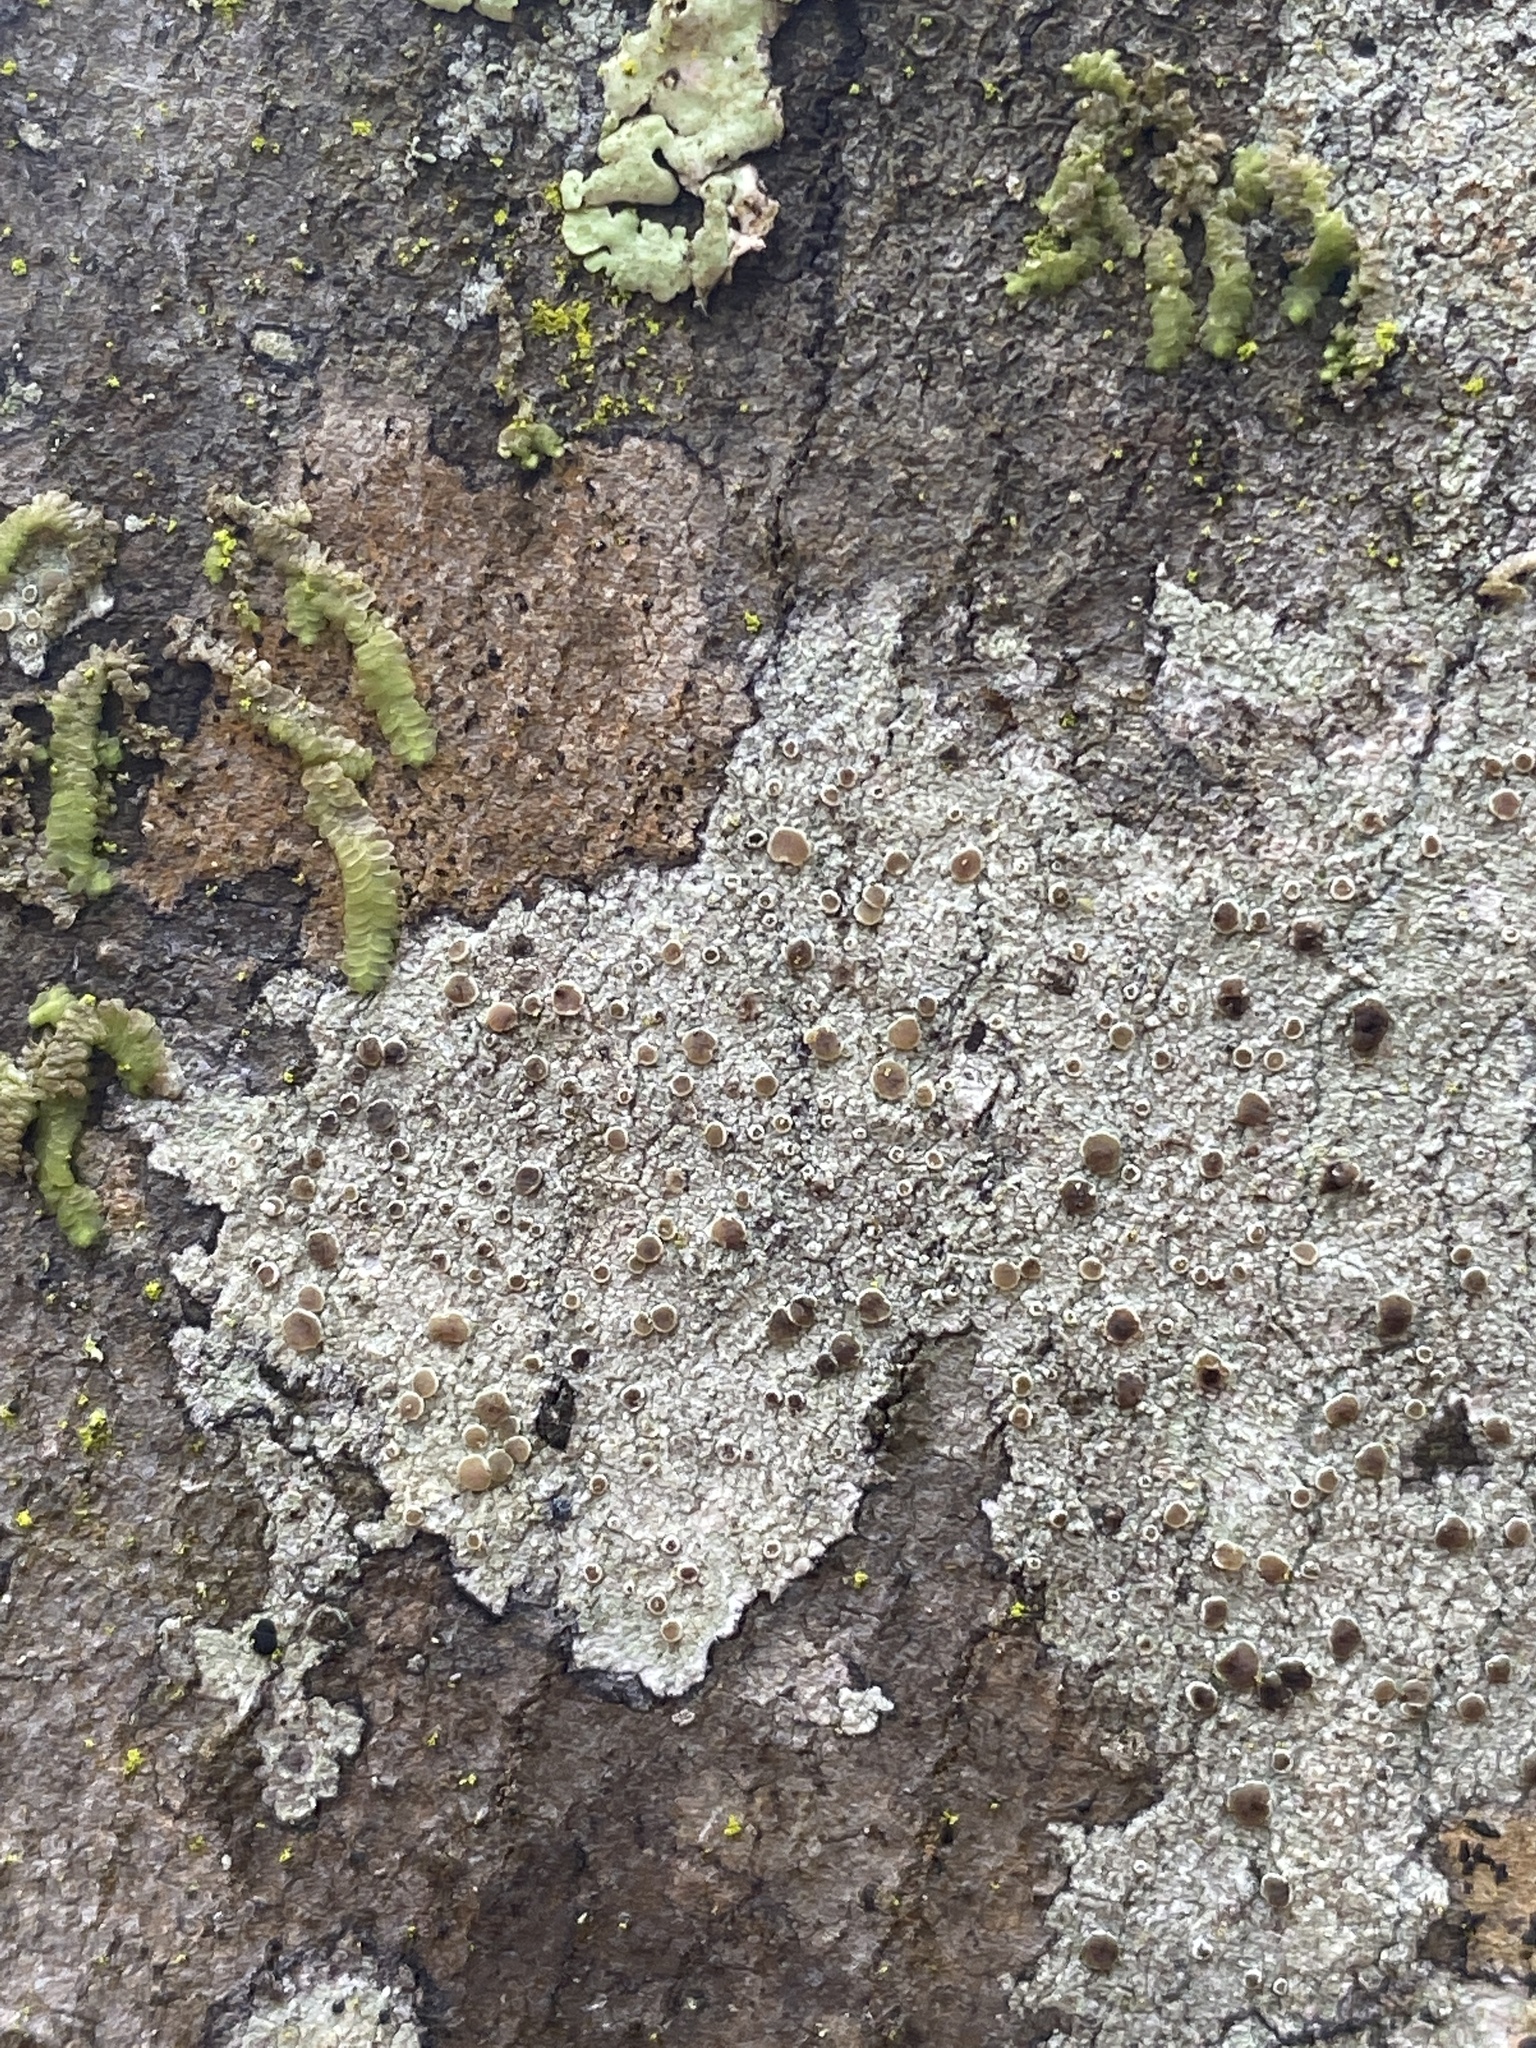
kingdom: Fungi
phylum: Ascomycota
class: Lecanoromycetes
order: Lecanorales
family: Lecanoraceae
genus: Lecanora
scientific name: Lecanora hybocarpa
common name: Bumpy rim-lichen
